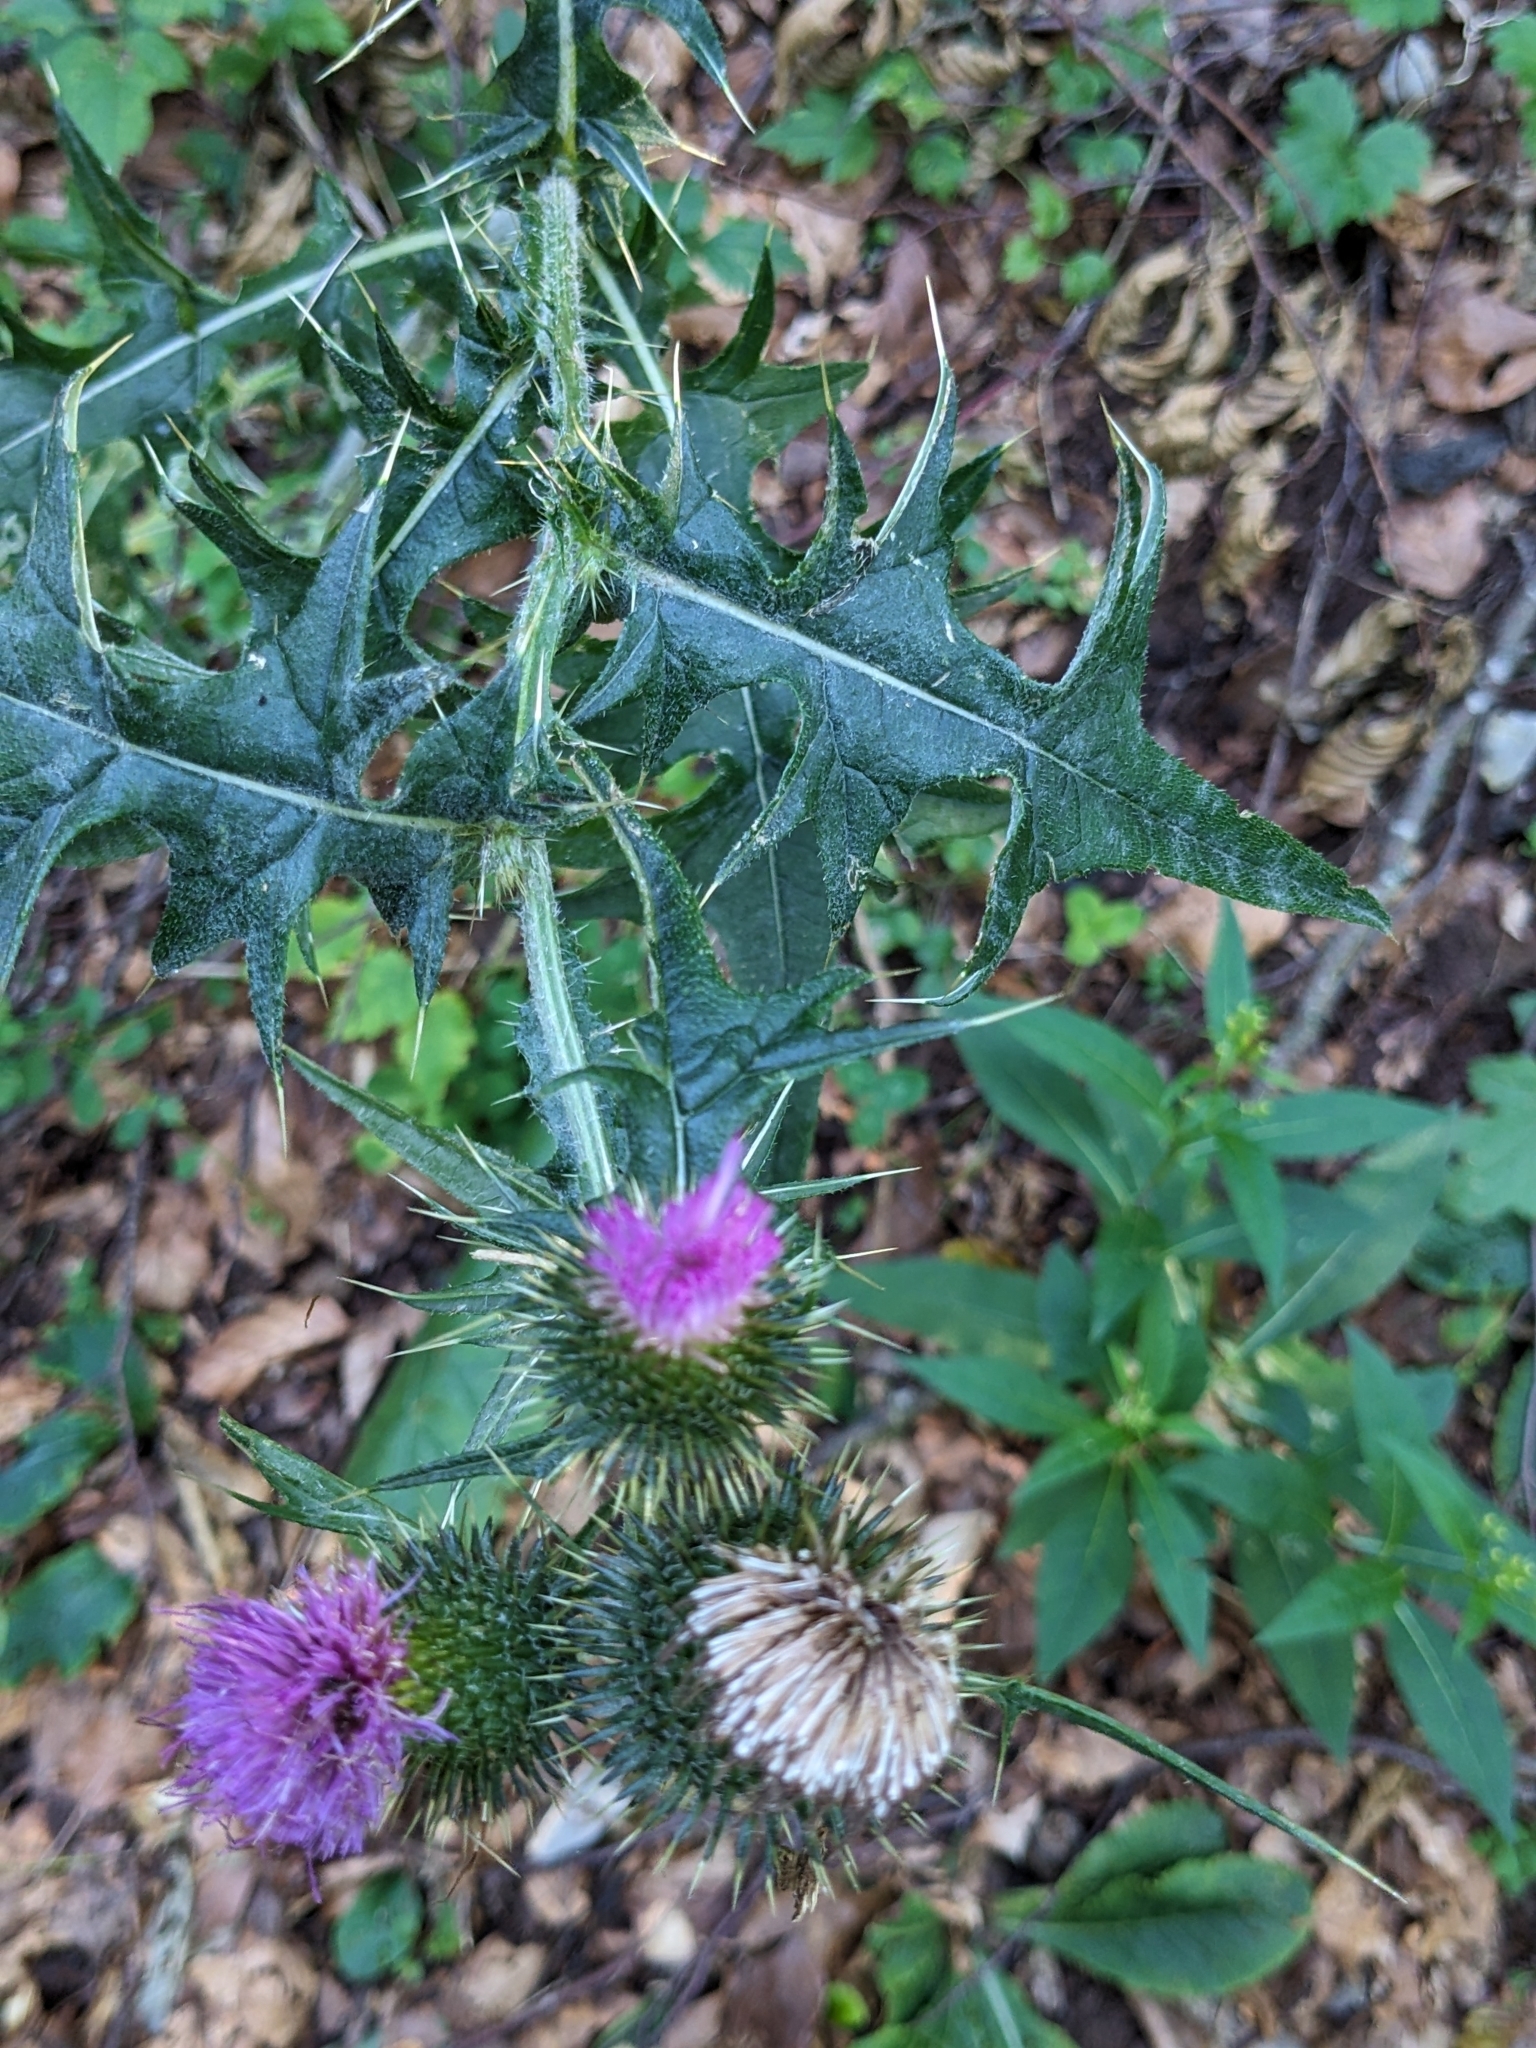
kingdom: Plantae
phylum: Tracheophyta
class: Magnoliopsida
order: Asterales
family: Asteraceae
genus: Cirsium
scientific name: Cirsium vulgare
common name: Bull thistle
